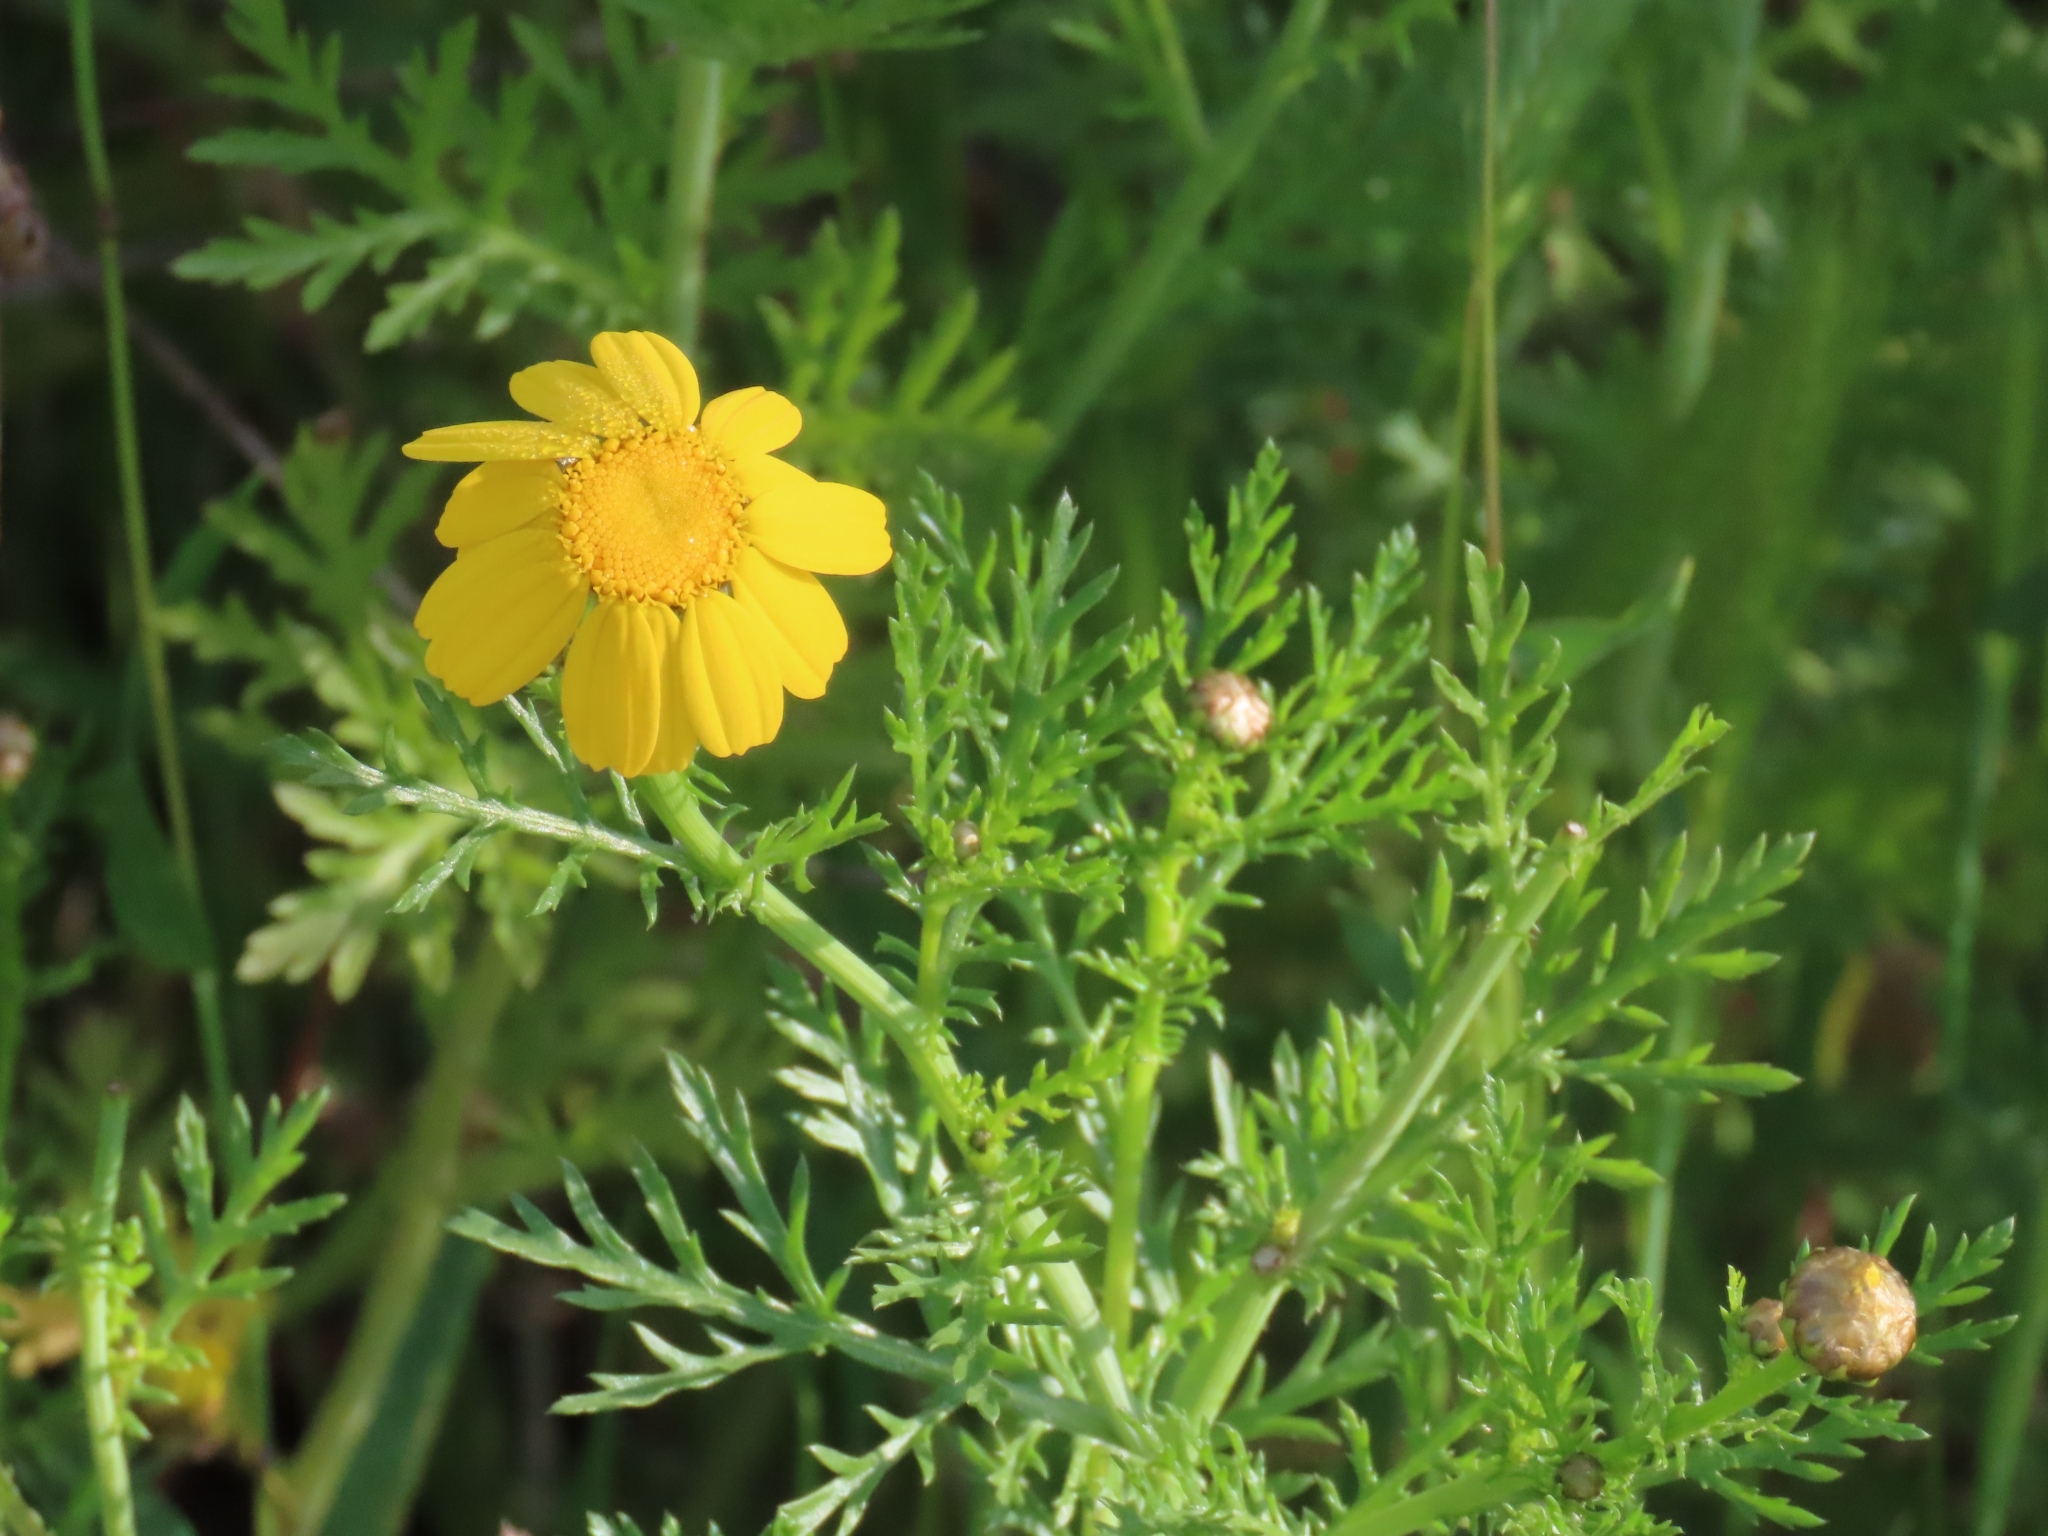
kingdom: Plantae
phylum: Tracheophyta
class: Magnoliopsida
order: Asterales
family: Asteraceae
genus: Glebionis
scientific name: Glebionis coronaria
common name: Crowndaisy
